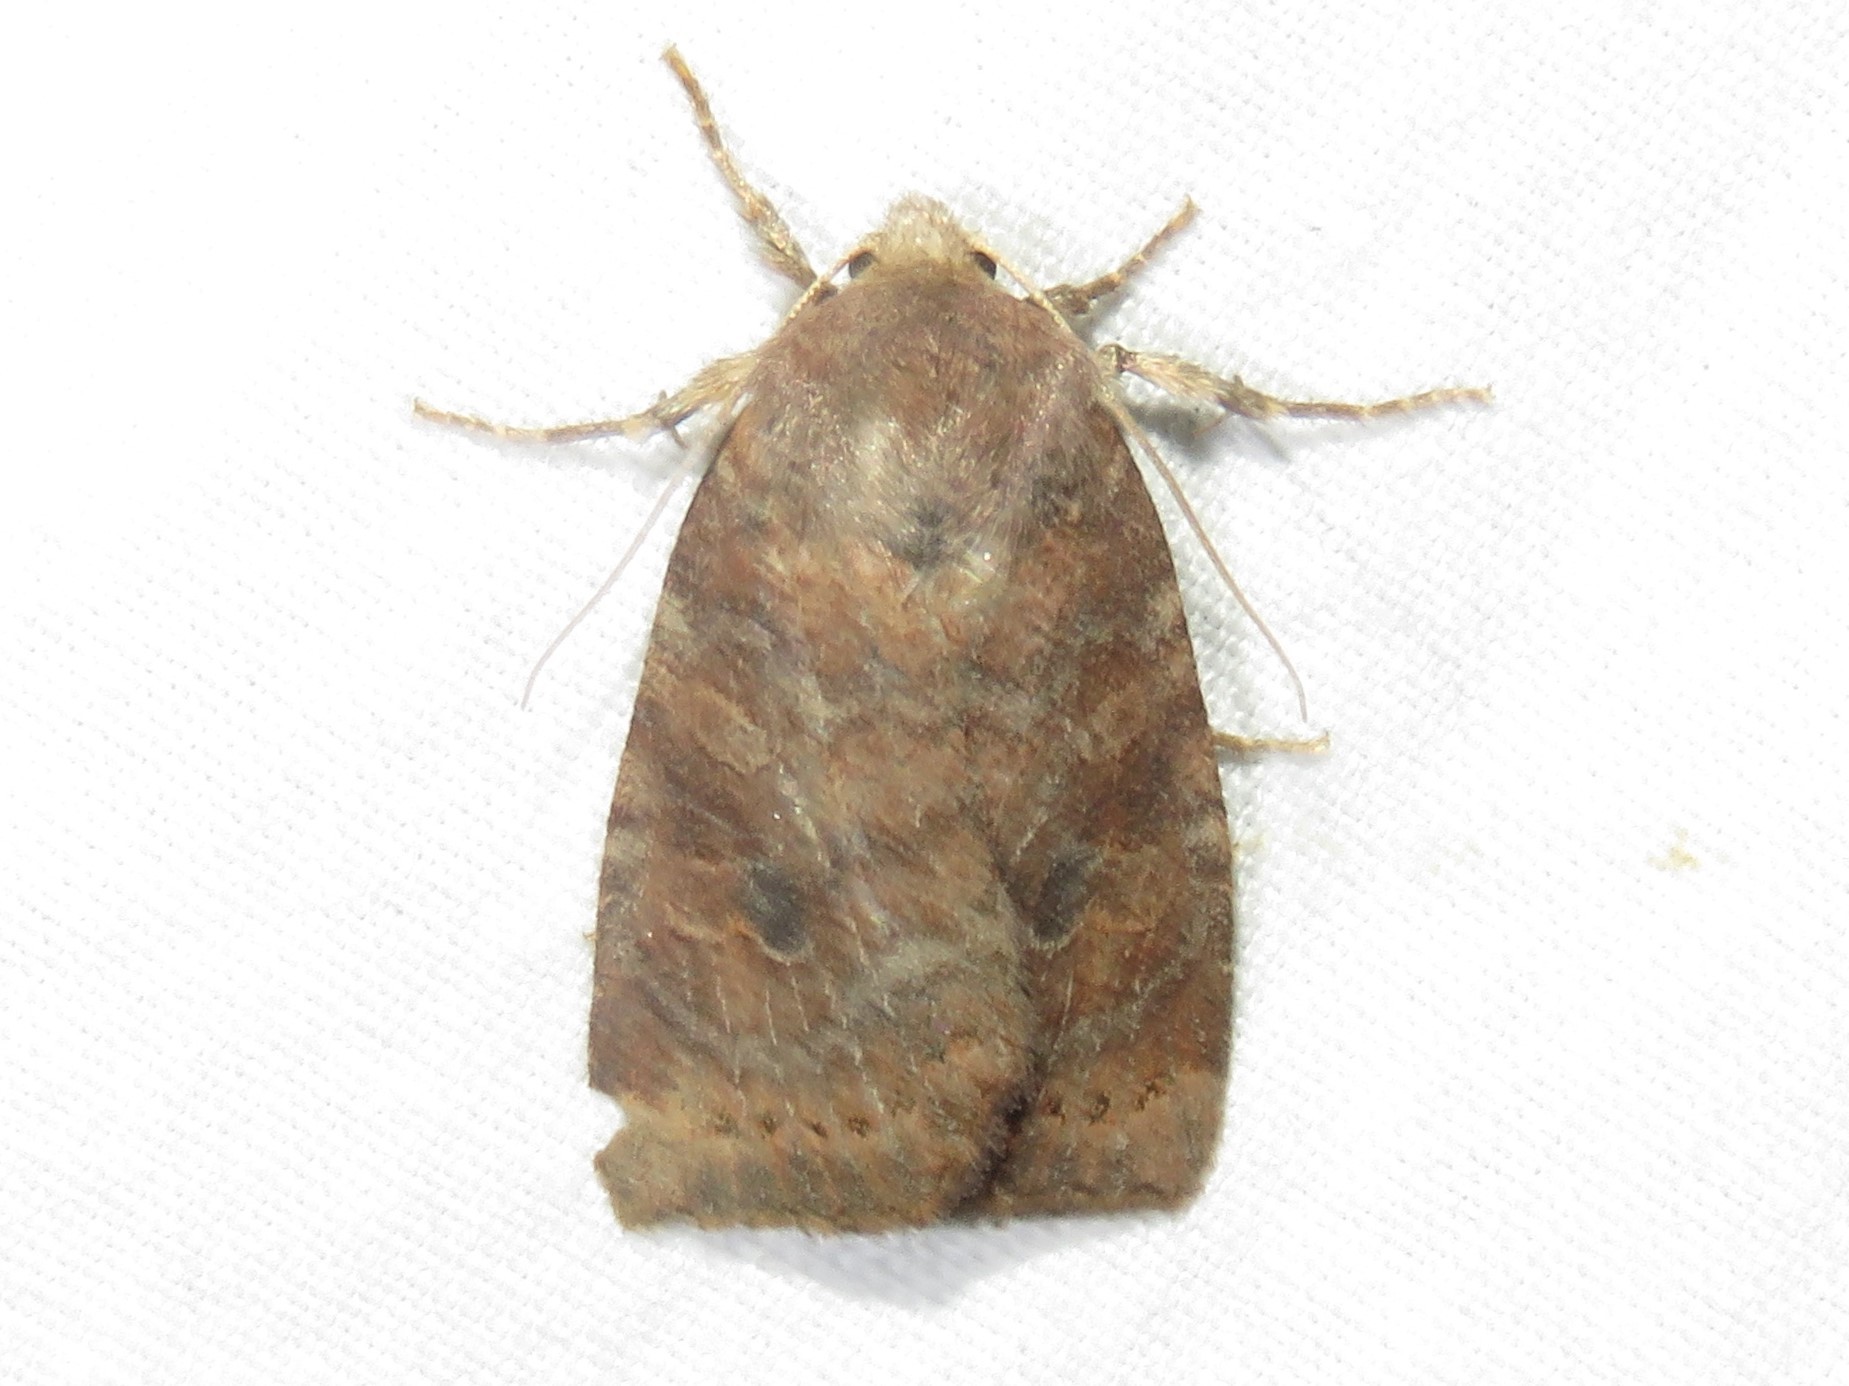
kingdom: Animalia
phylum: Arthropoda
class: Insecta
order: Lepidoptera
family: Noctuidae
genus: Anathix
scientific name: Anathix puta
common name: Puta sallow
